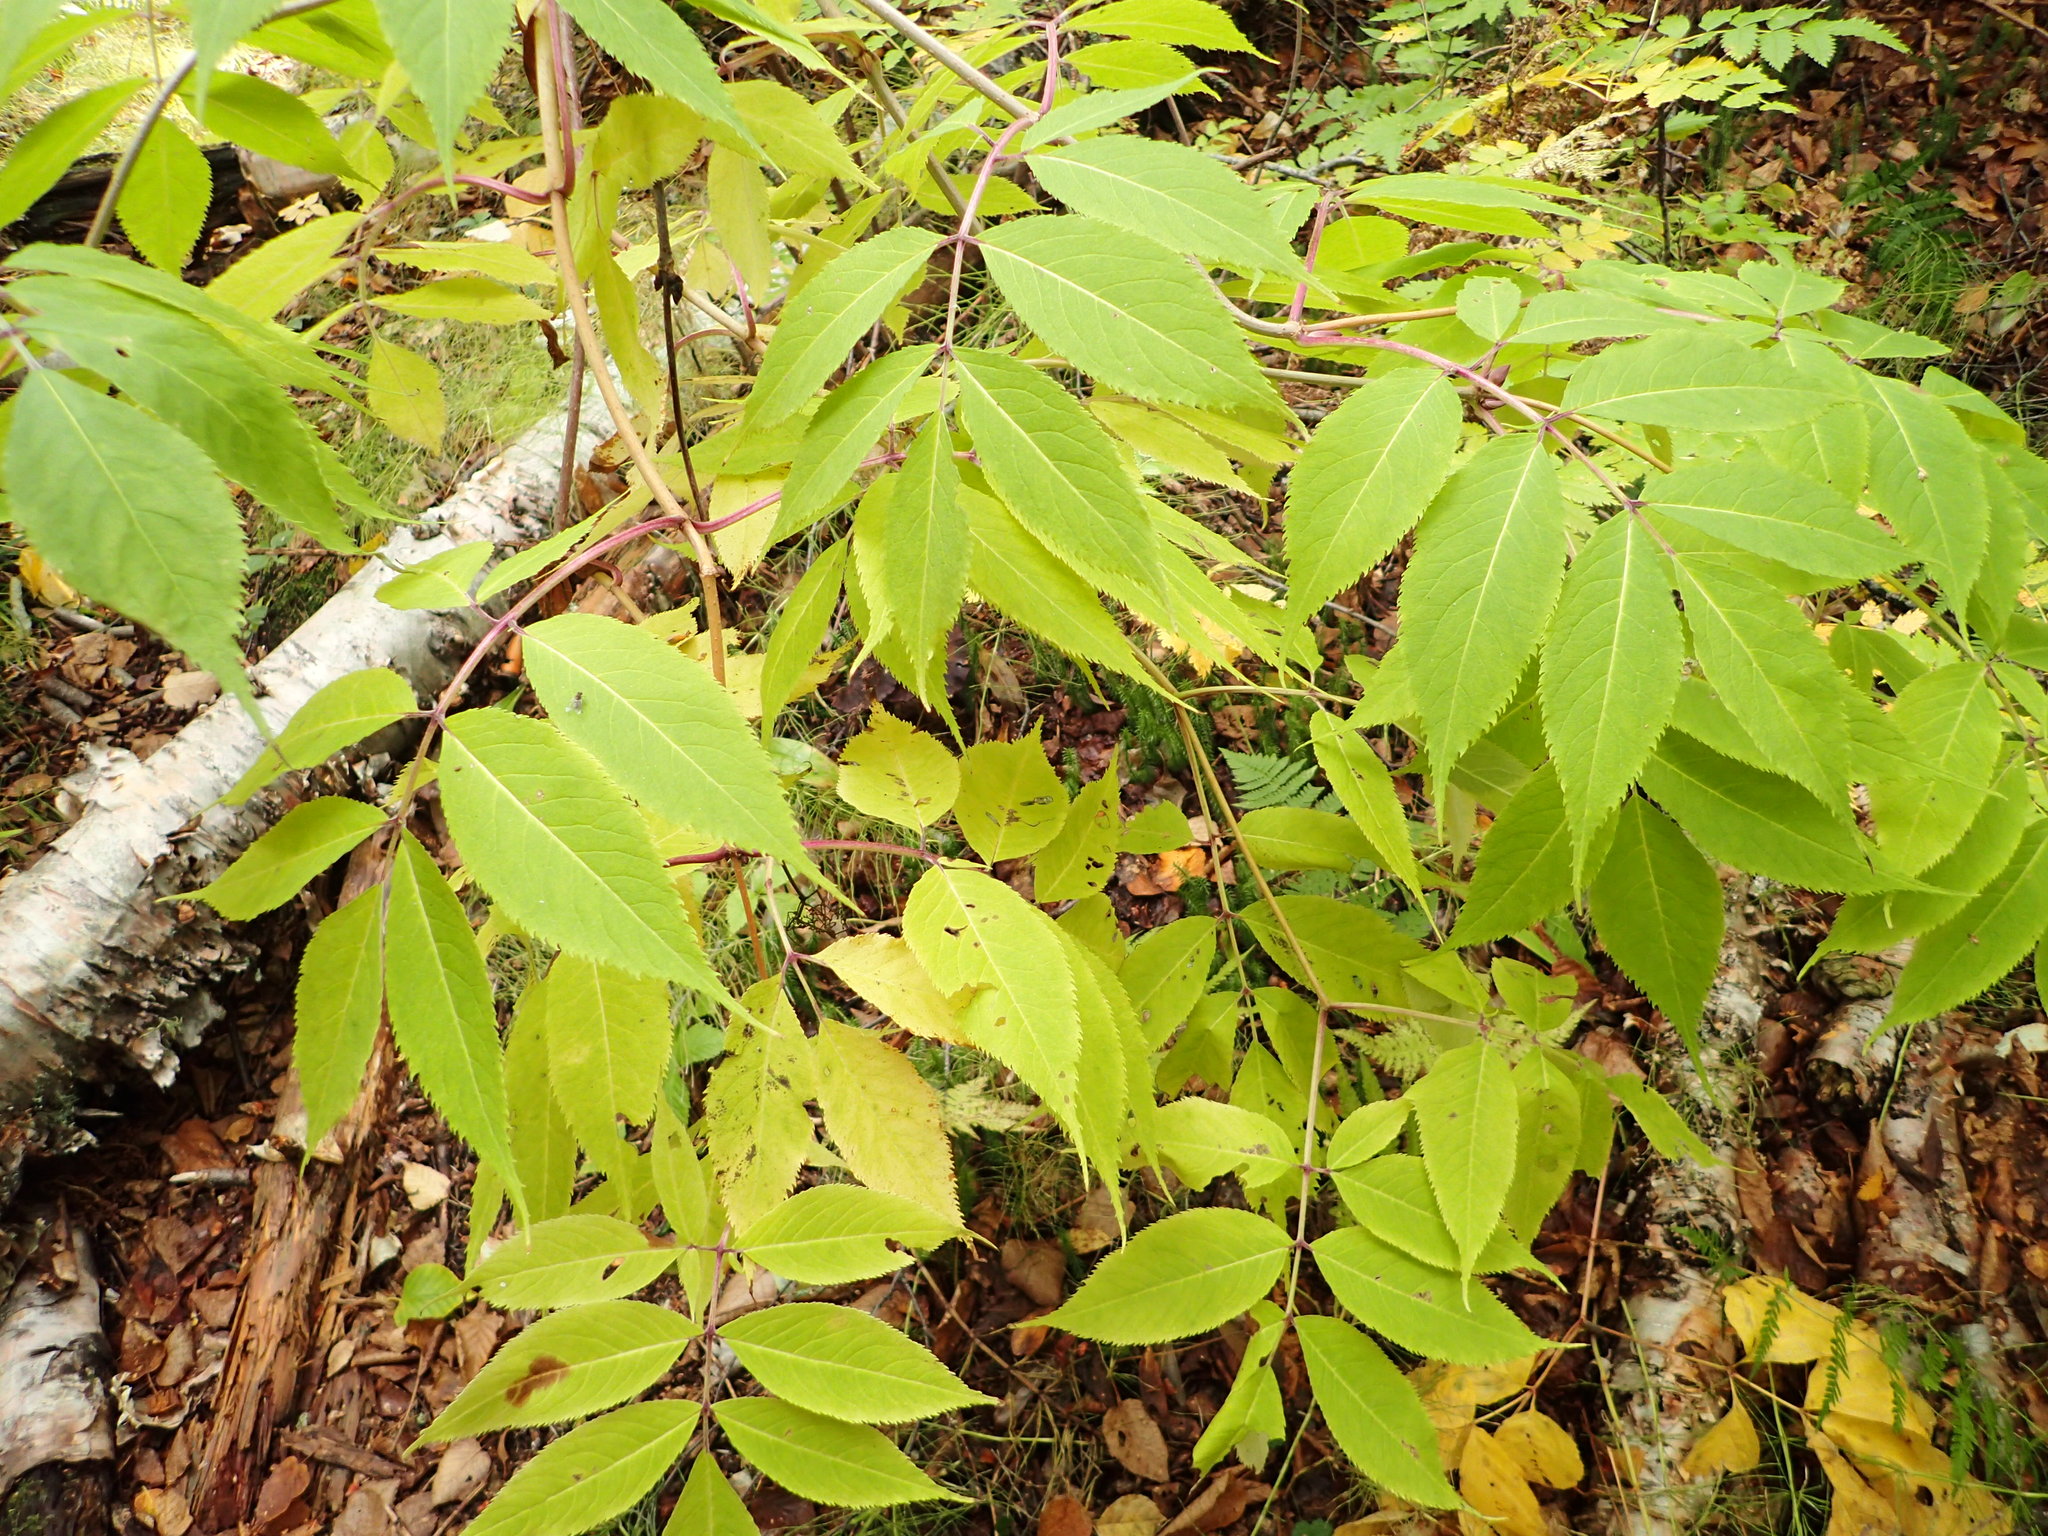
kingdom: Plantae
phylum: Tracheophyta
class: Magnoliopsida
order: Dipsacales
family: Viburnaceae
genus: Sambucus
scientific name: Sambucus racemosa
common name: Red-berried elder
